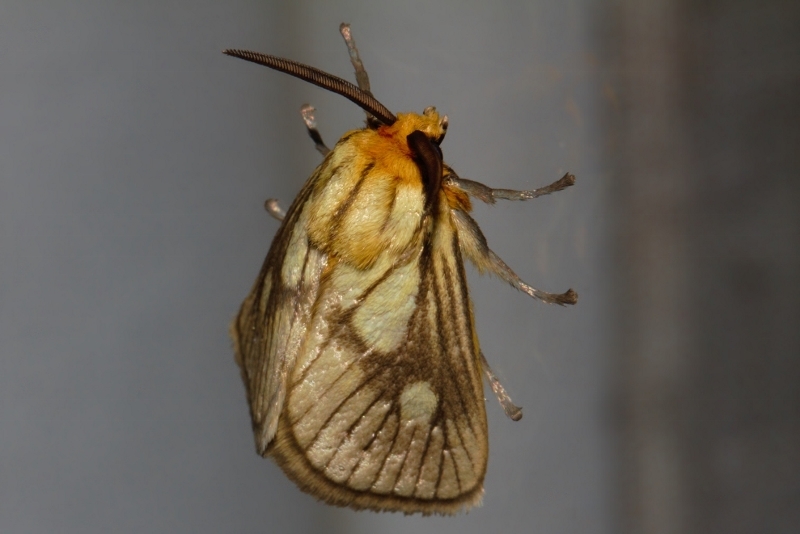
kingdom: Animalia
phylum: Arthropoda
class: Insecta
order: Lepidoptera
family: Limacodidae
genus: Cosuma
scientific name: Cosuma polana
